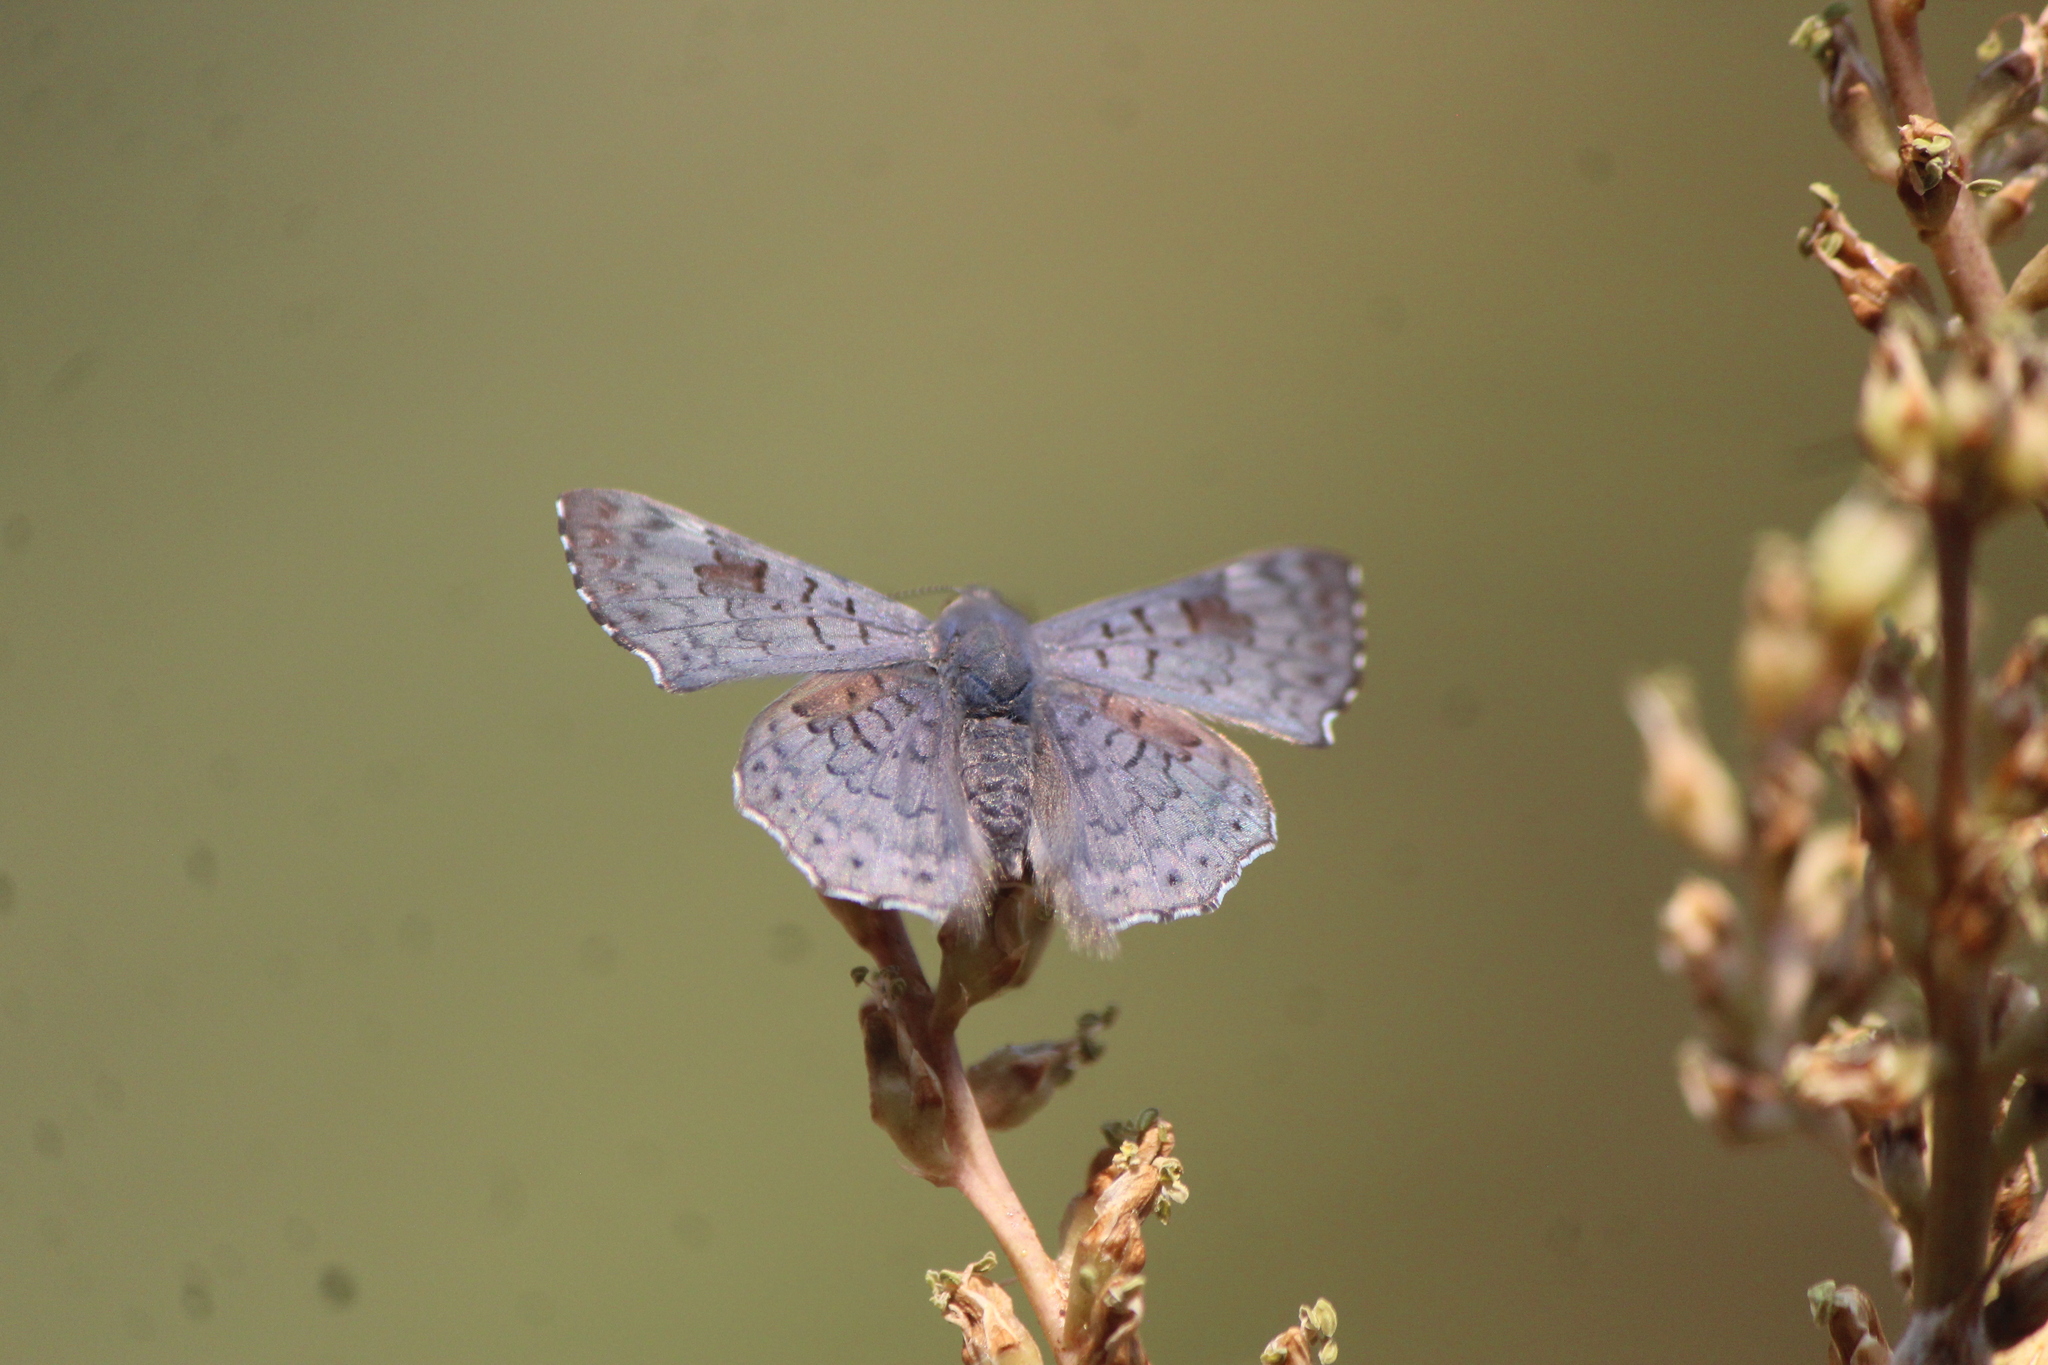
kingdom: Animalia
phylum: Arthropoda
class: Insecta
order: Lepidoptera
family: Riodinidae
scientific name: Riodinidae
